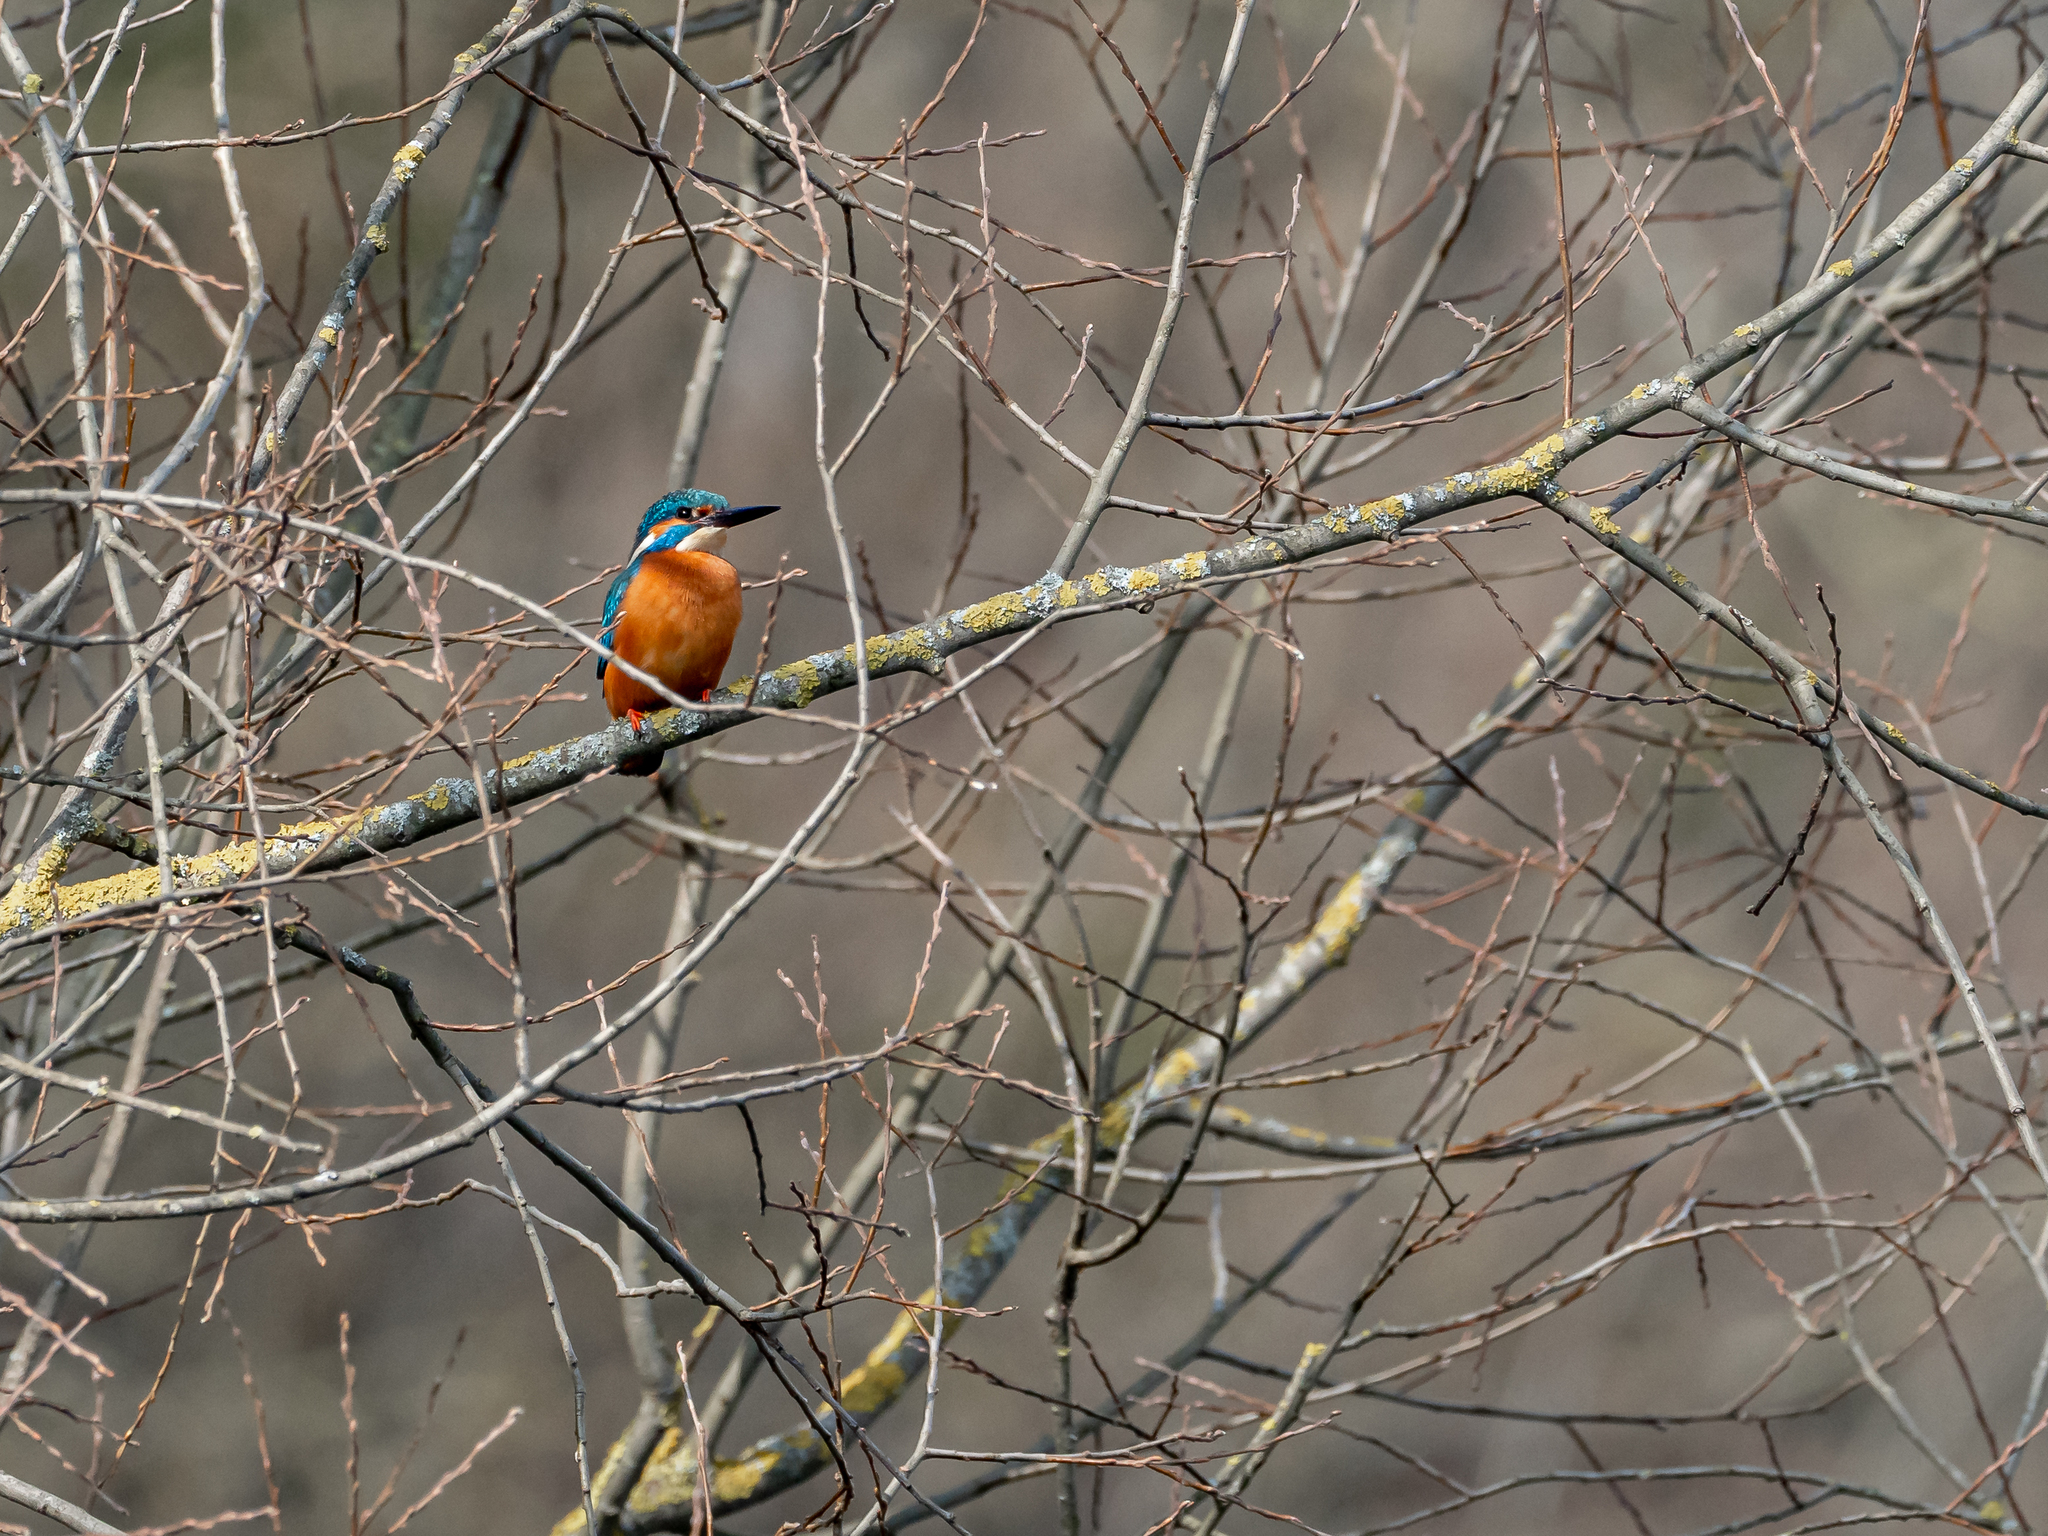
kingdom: Animalia
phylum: Chordata
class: Aves
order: Coraciiformes
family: Alcedinidae
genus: Alcedo
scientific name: Alcedo atthis
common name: Common kingfisher
